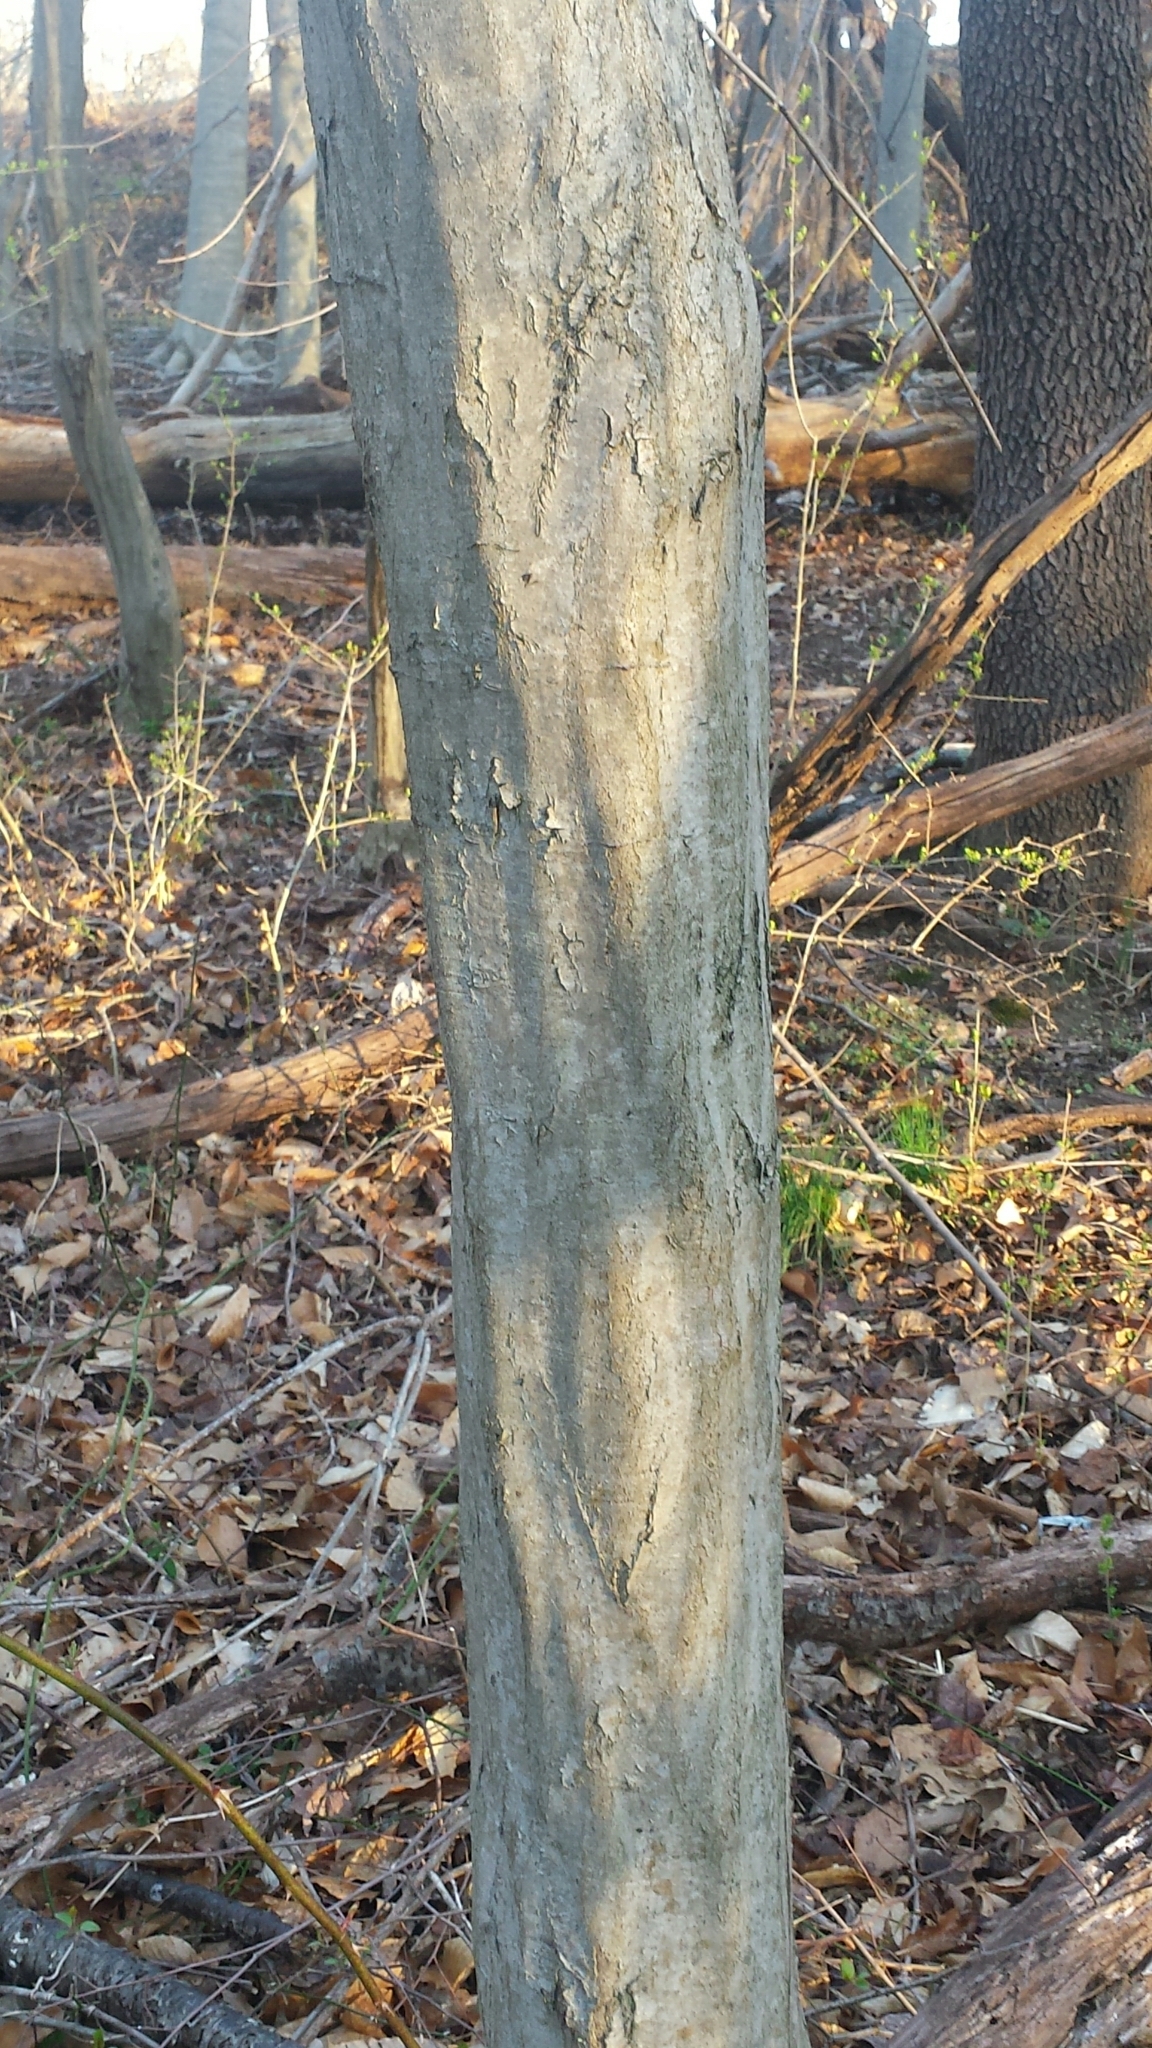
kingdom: Plantae
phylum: Tracheophyta
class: Magnoliopsida
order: Fagales
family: Betulaceae
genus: Carpinus
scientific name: Carpinus caroliniana
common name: American hornbeam
